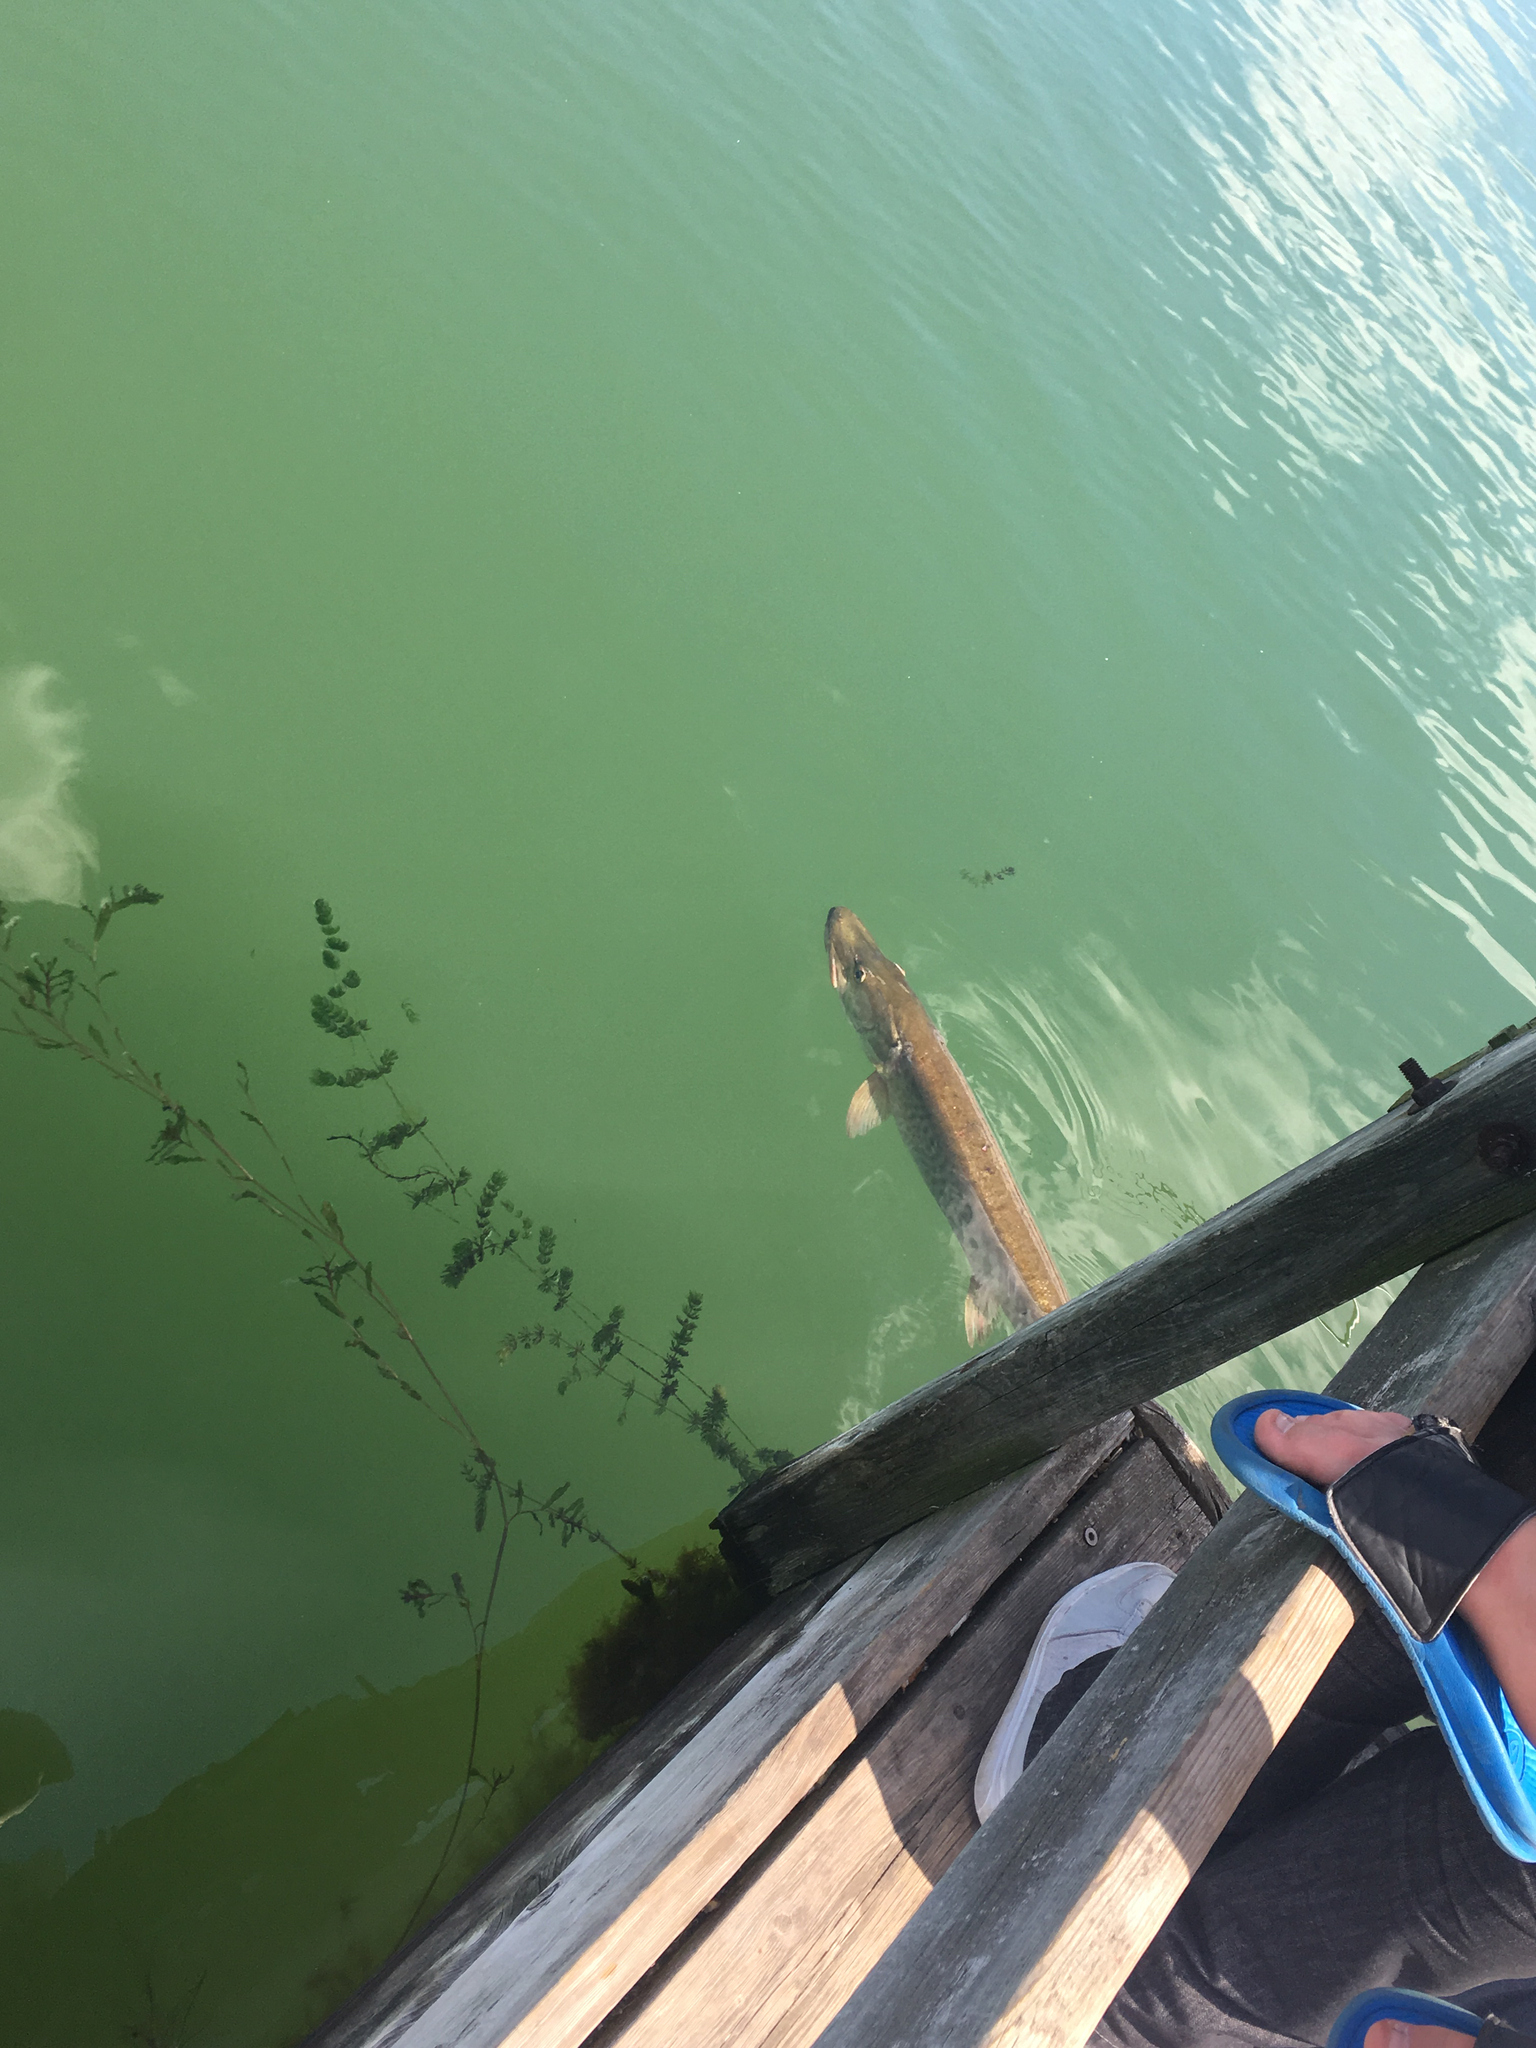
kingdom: Animalia
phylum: Chordata
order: Esociformes
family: Esocidae
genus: Esox
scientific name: Esox masquinongy
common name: Muskellunge
